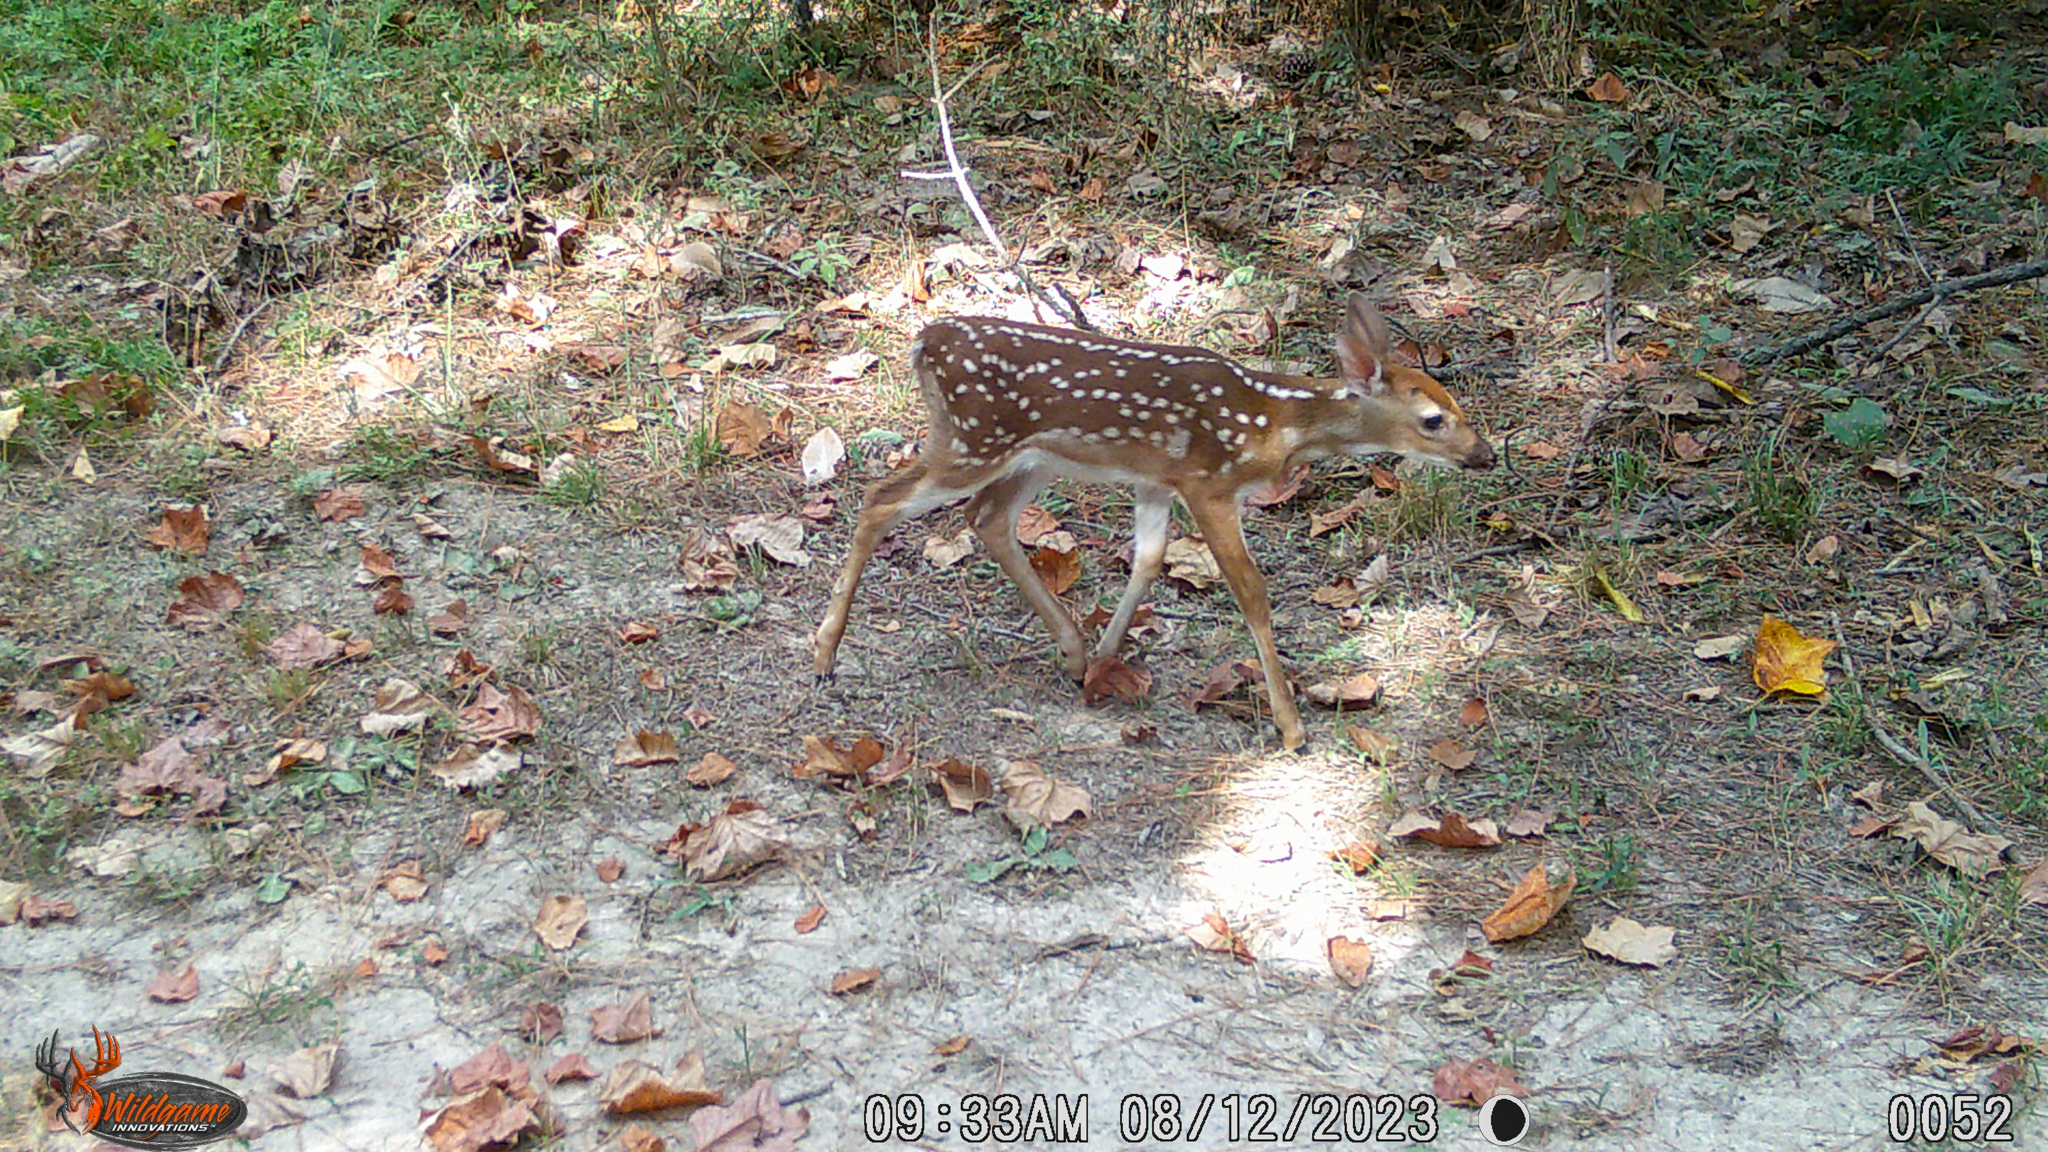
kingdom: Animalia
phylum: Chordata
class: Mammalia
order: Artiodactyla
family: Cervidae
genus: Odocoileus
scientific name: Odocoileus virginianus
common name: White-tailed deer
